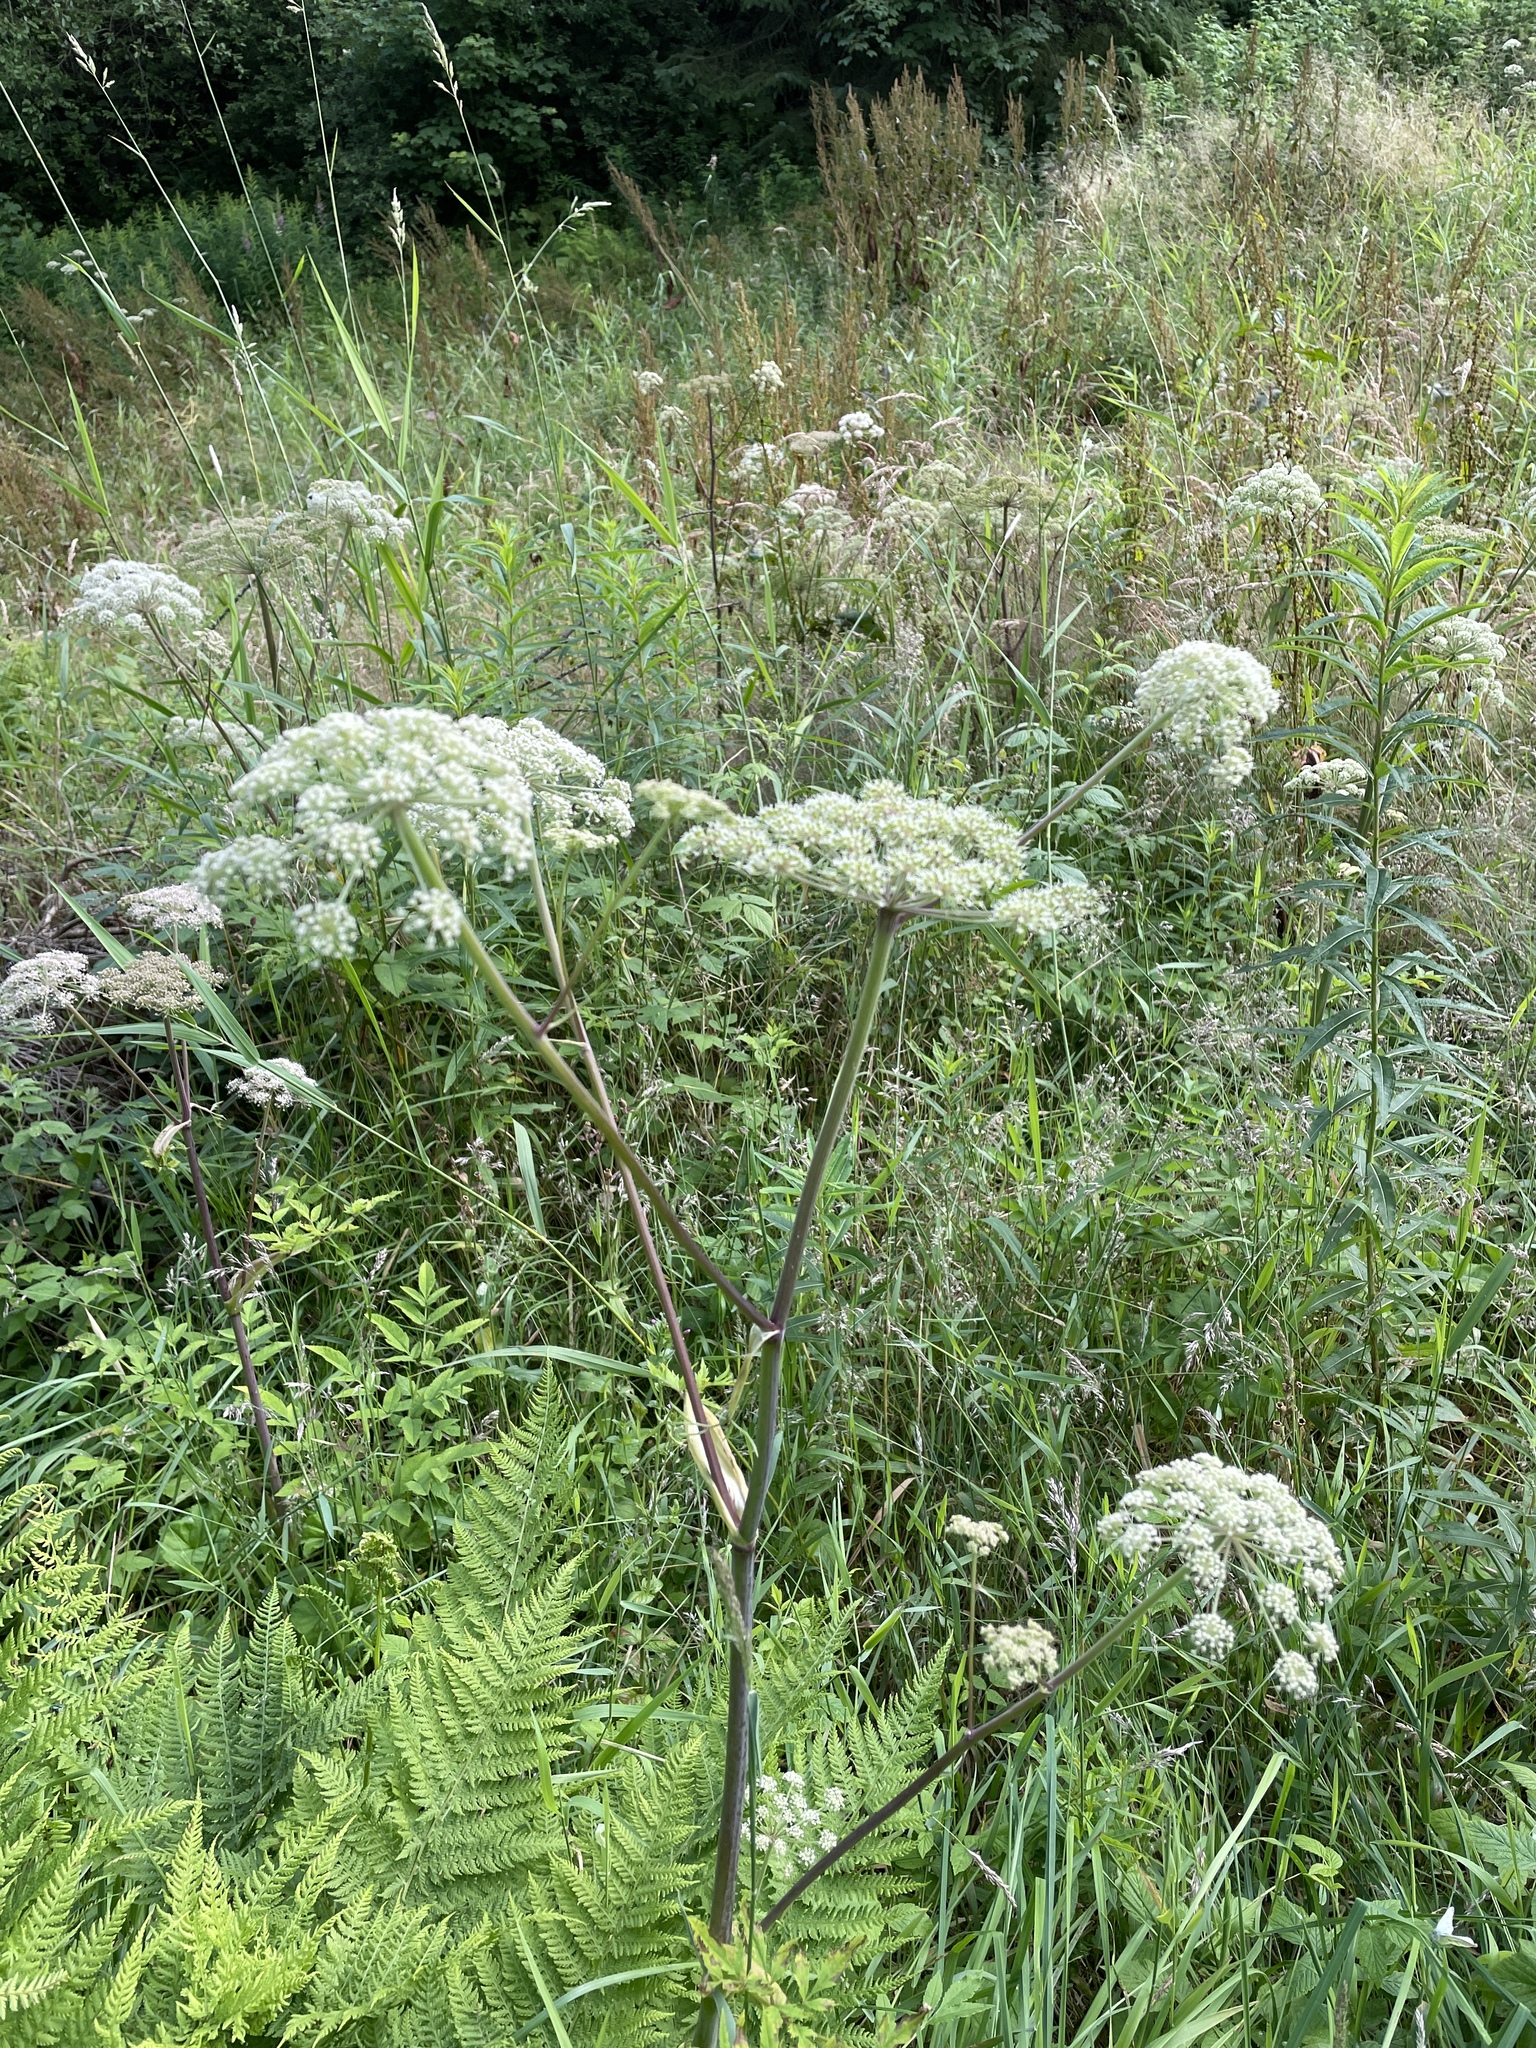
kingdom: Plantae
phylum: Tracheophyta
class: Magnoliopsida
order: Apiales
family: Apiaceae
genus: Angelica
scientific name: Angelica sylvestris
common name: Wild angelica
